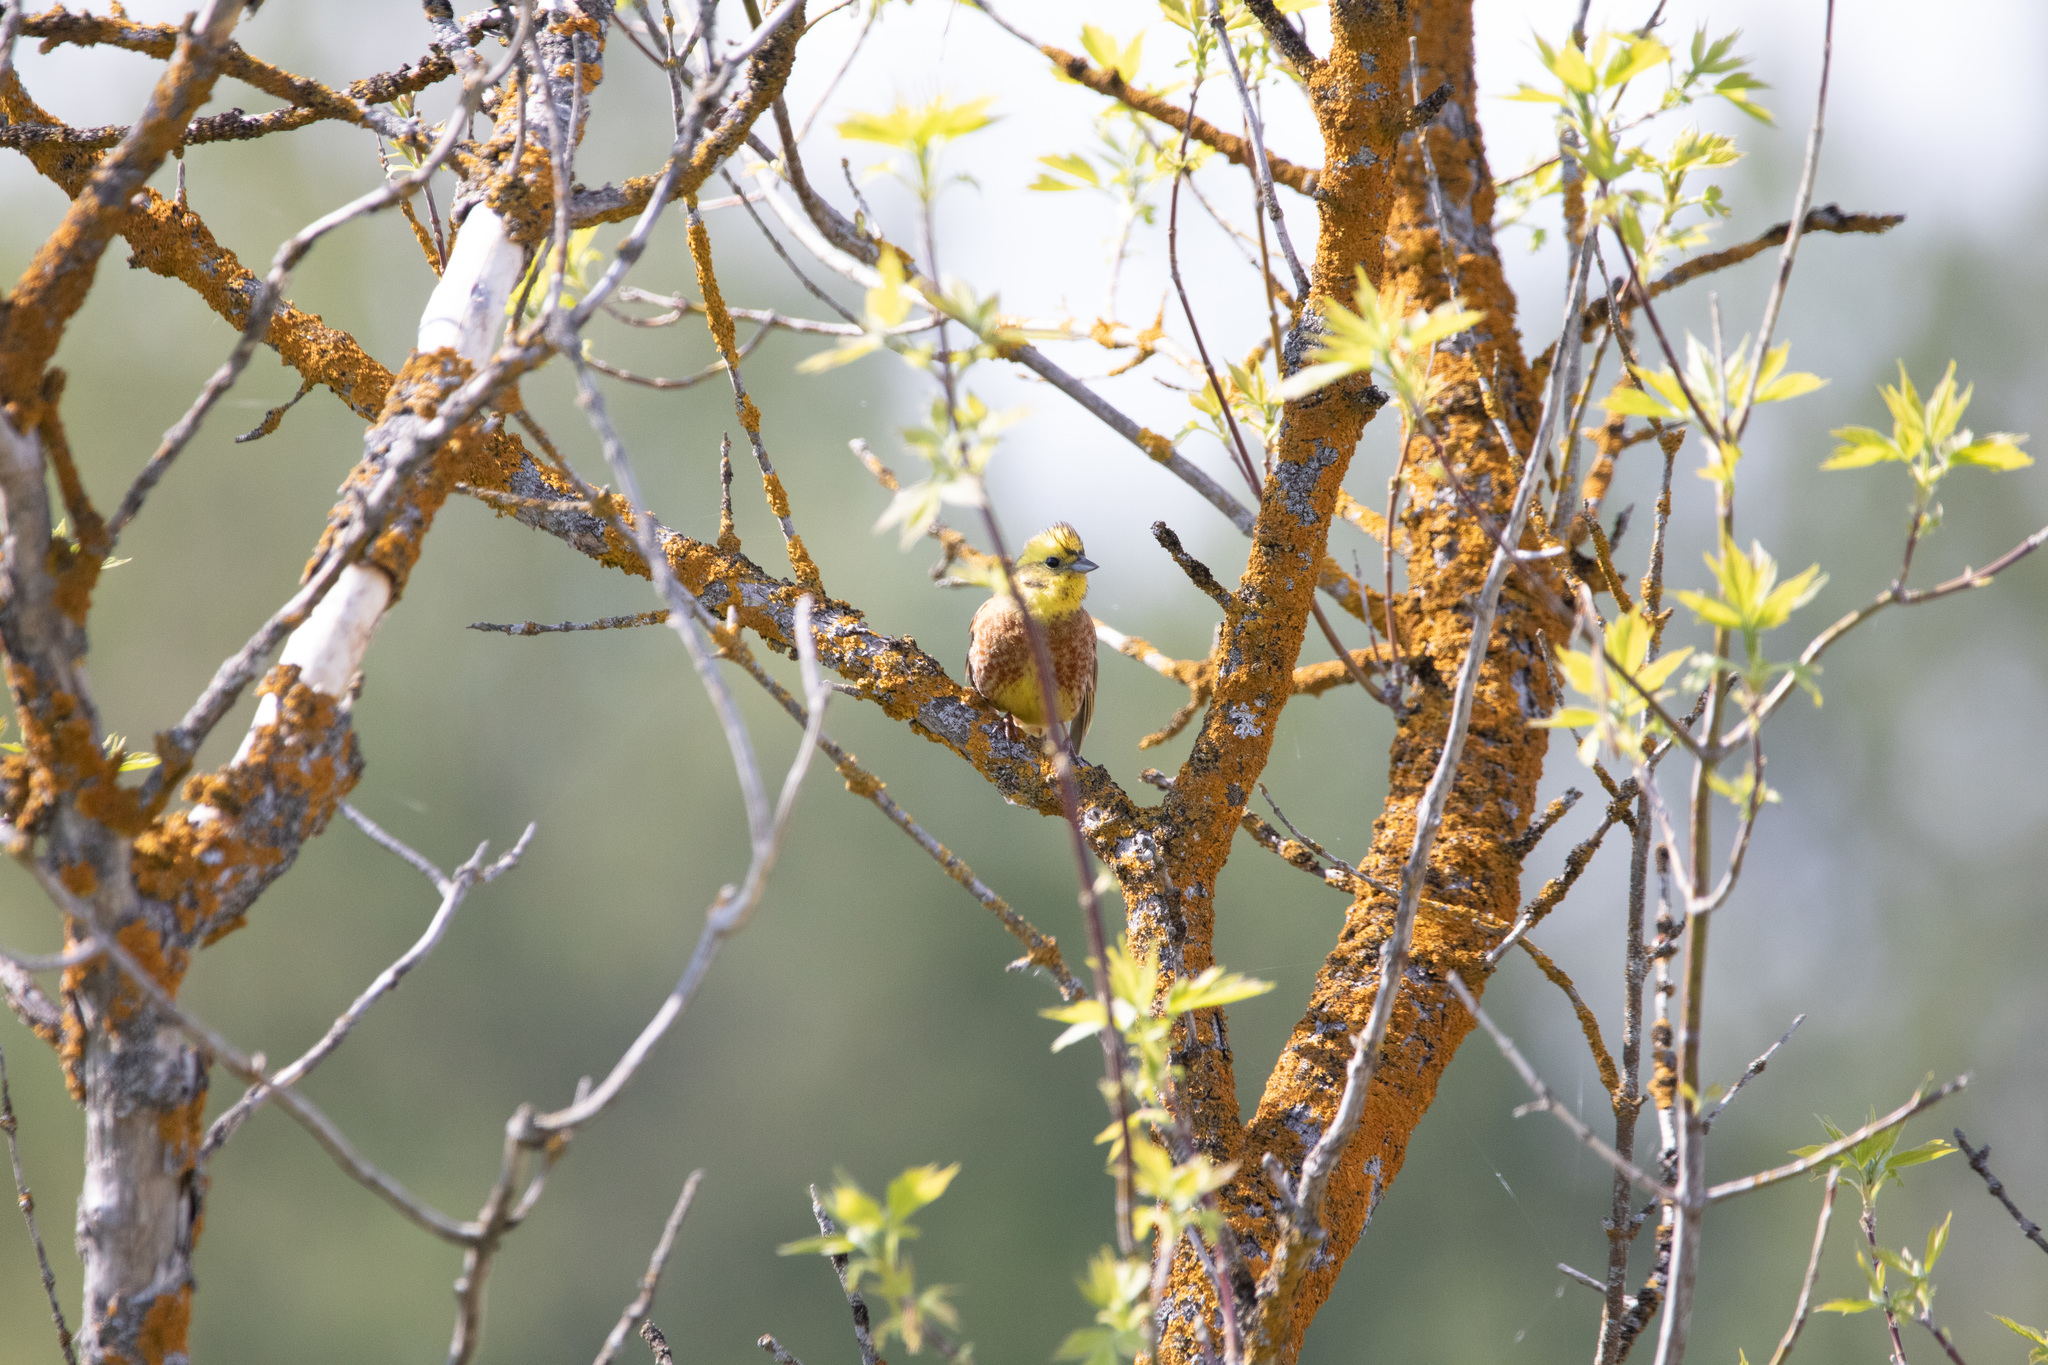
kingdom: Animalia
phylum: Chordata
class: Aves
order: Passeriformes
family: Emberizidae
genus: Emberiza
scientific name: Emberiza citrinella
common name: Yellowhammer
